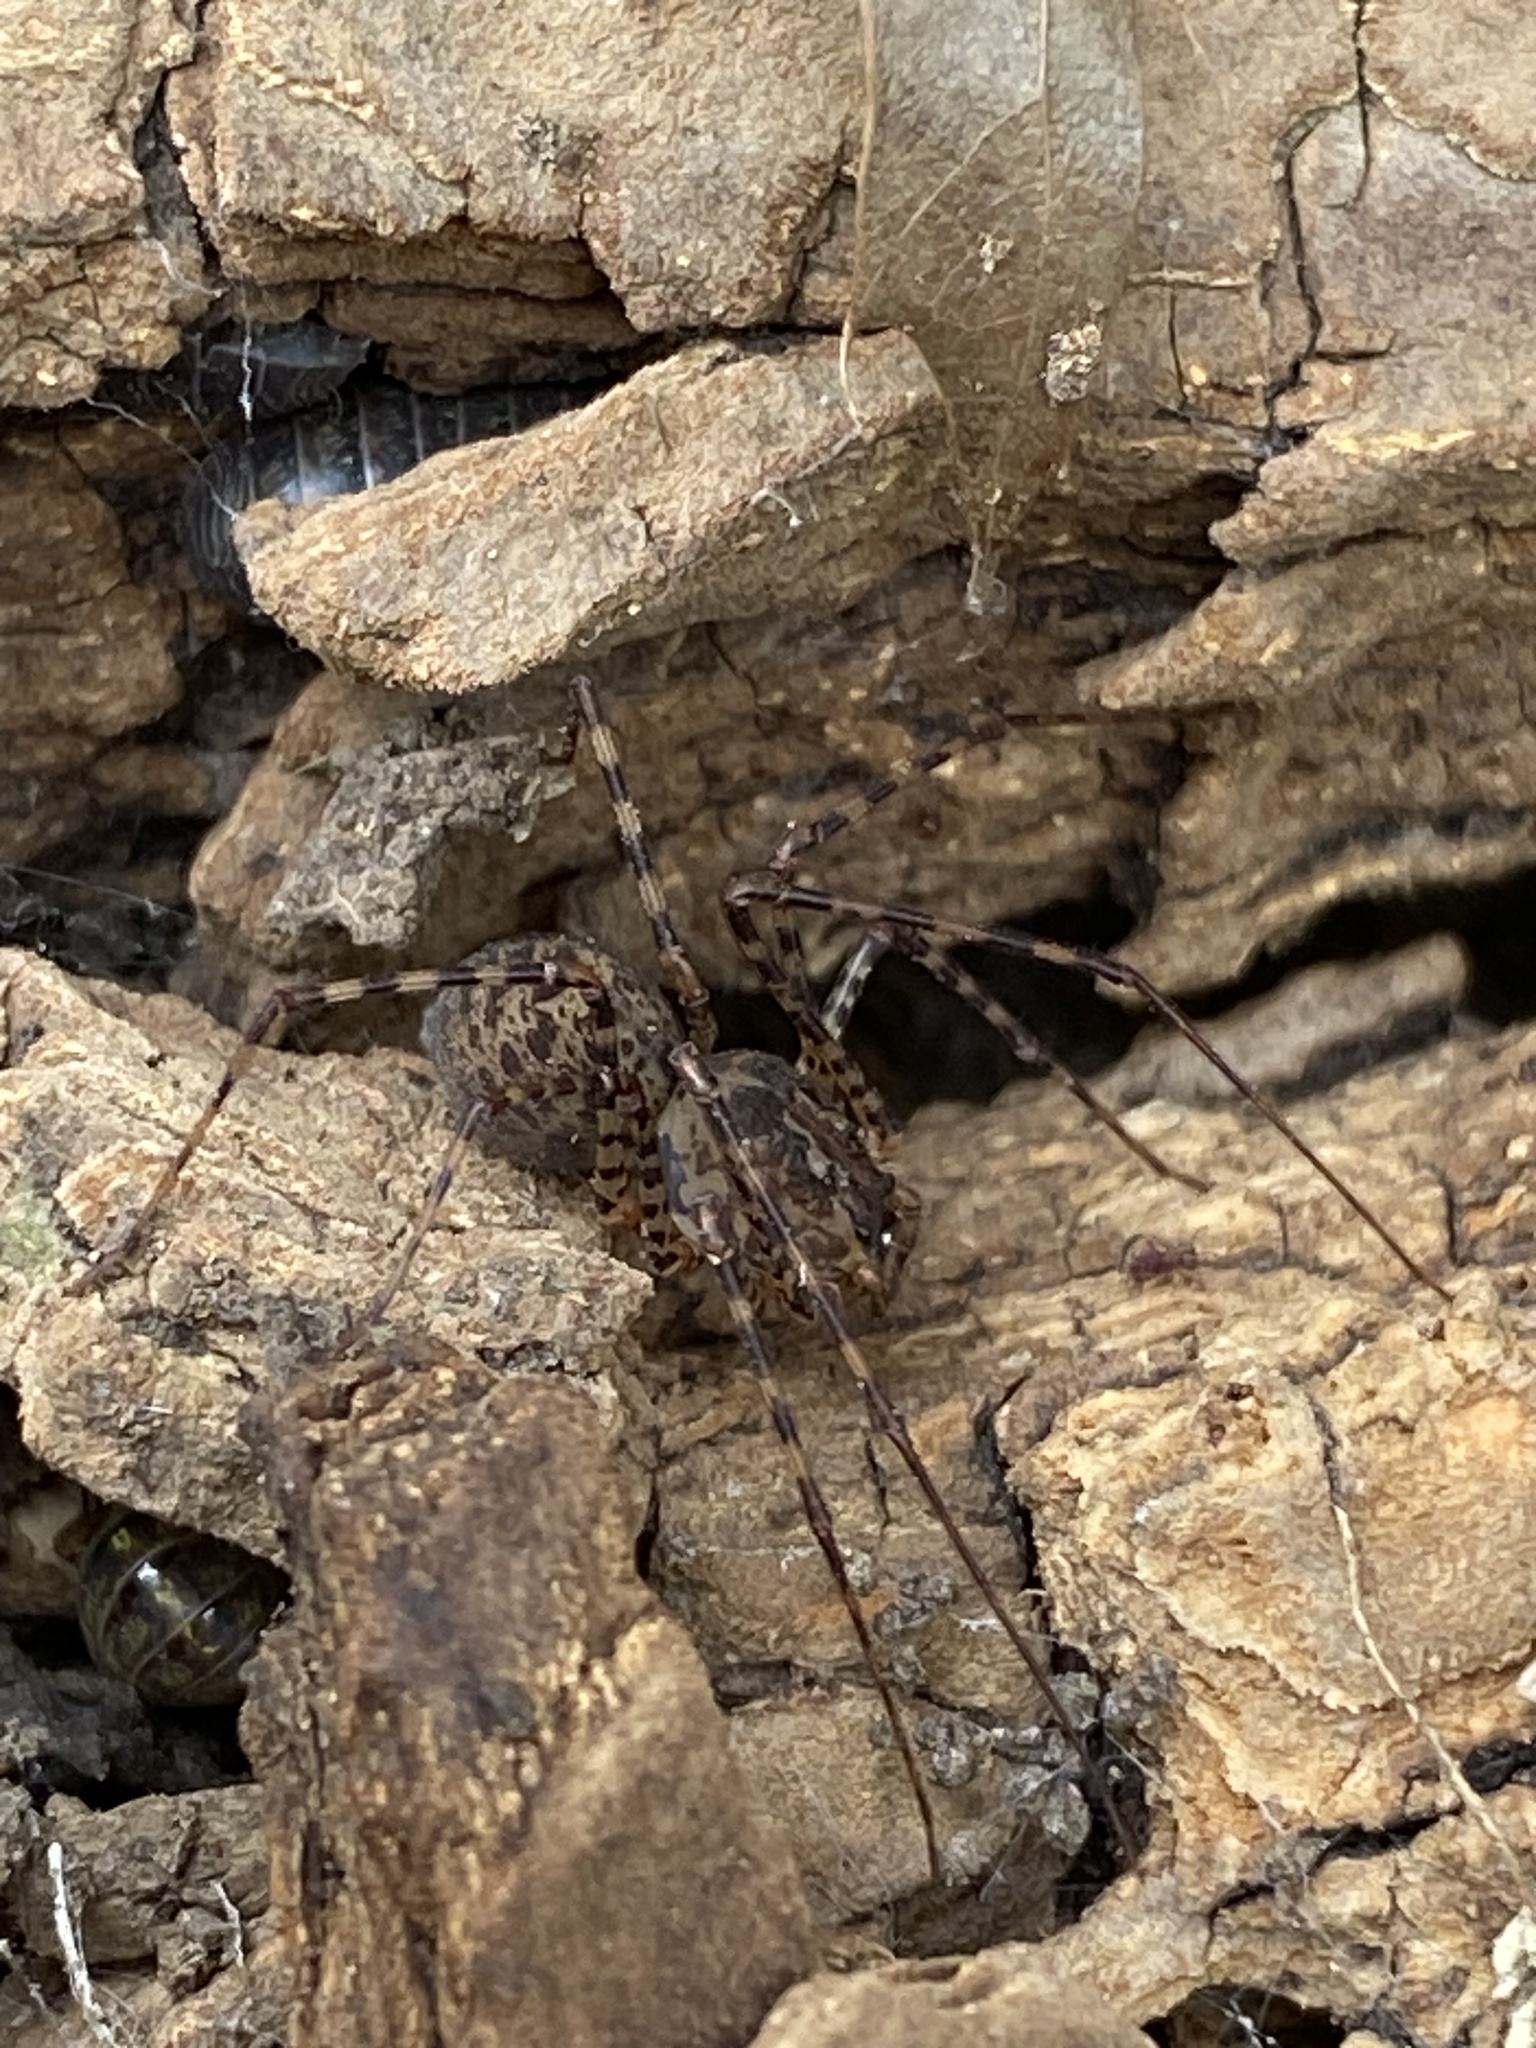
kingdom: Animalia
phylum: Arthropoda
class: Arachnida
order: Araneae
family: Scytodidae
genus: Scytodes
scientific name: Scytodes globula
